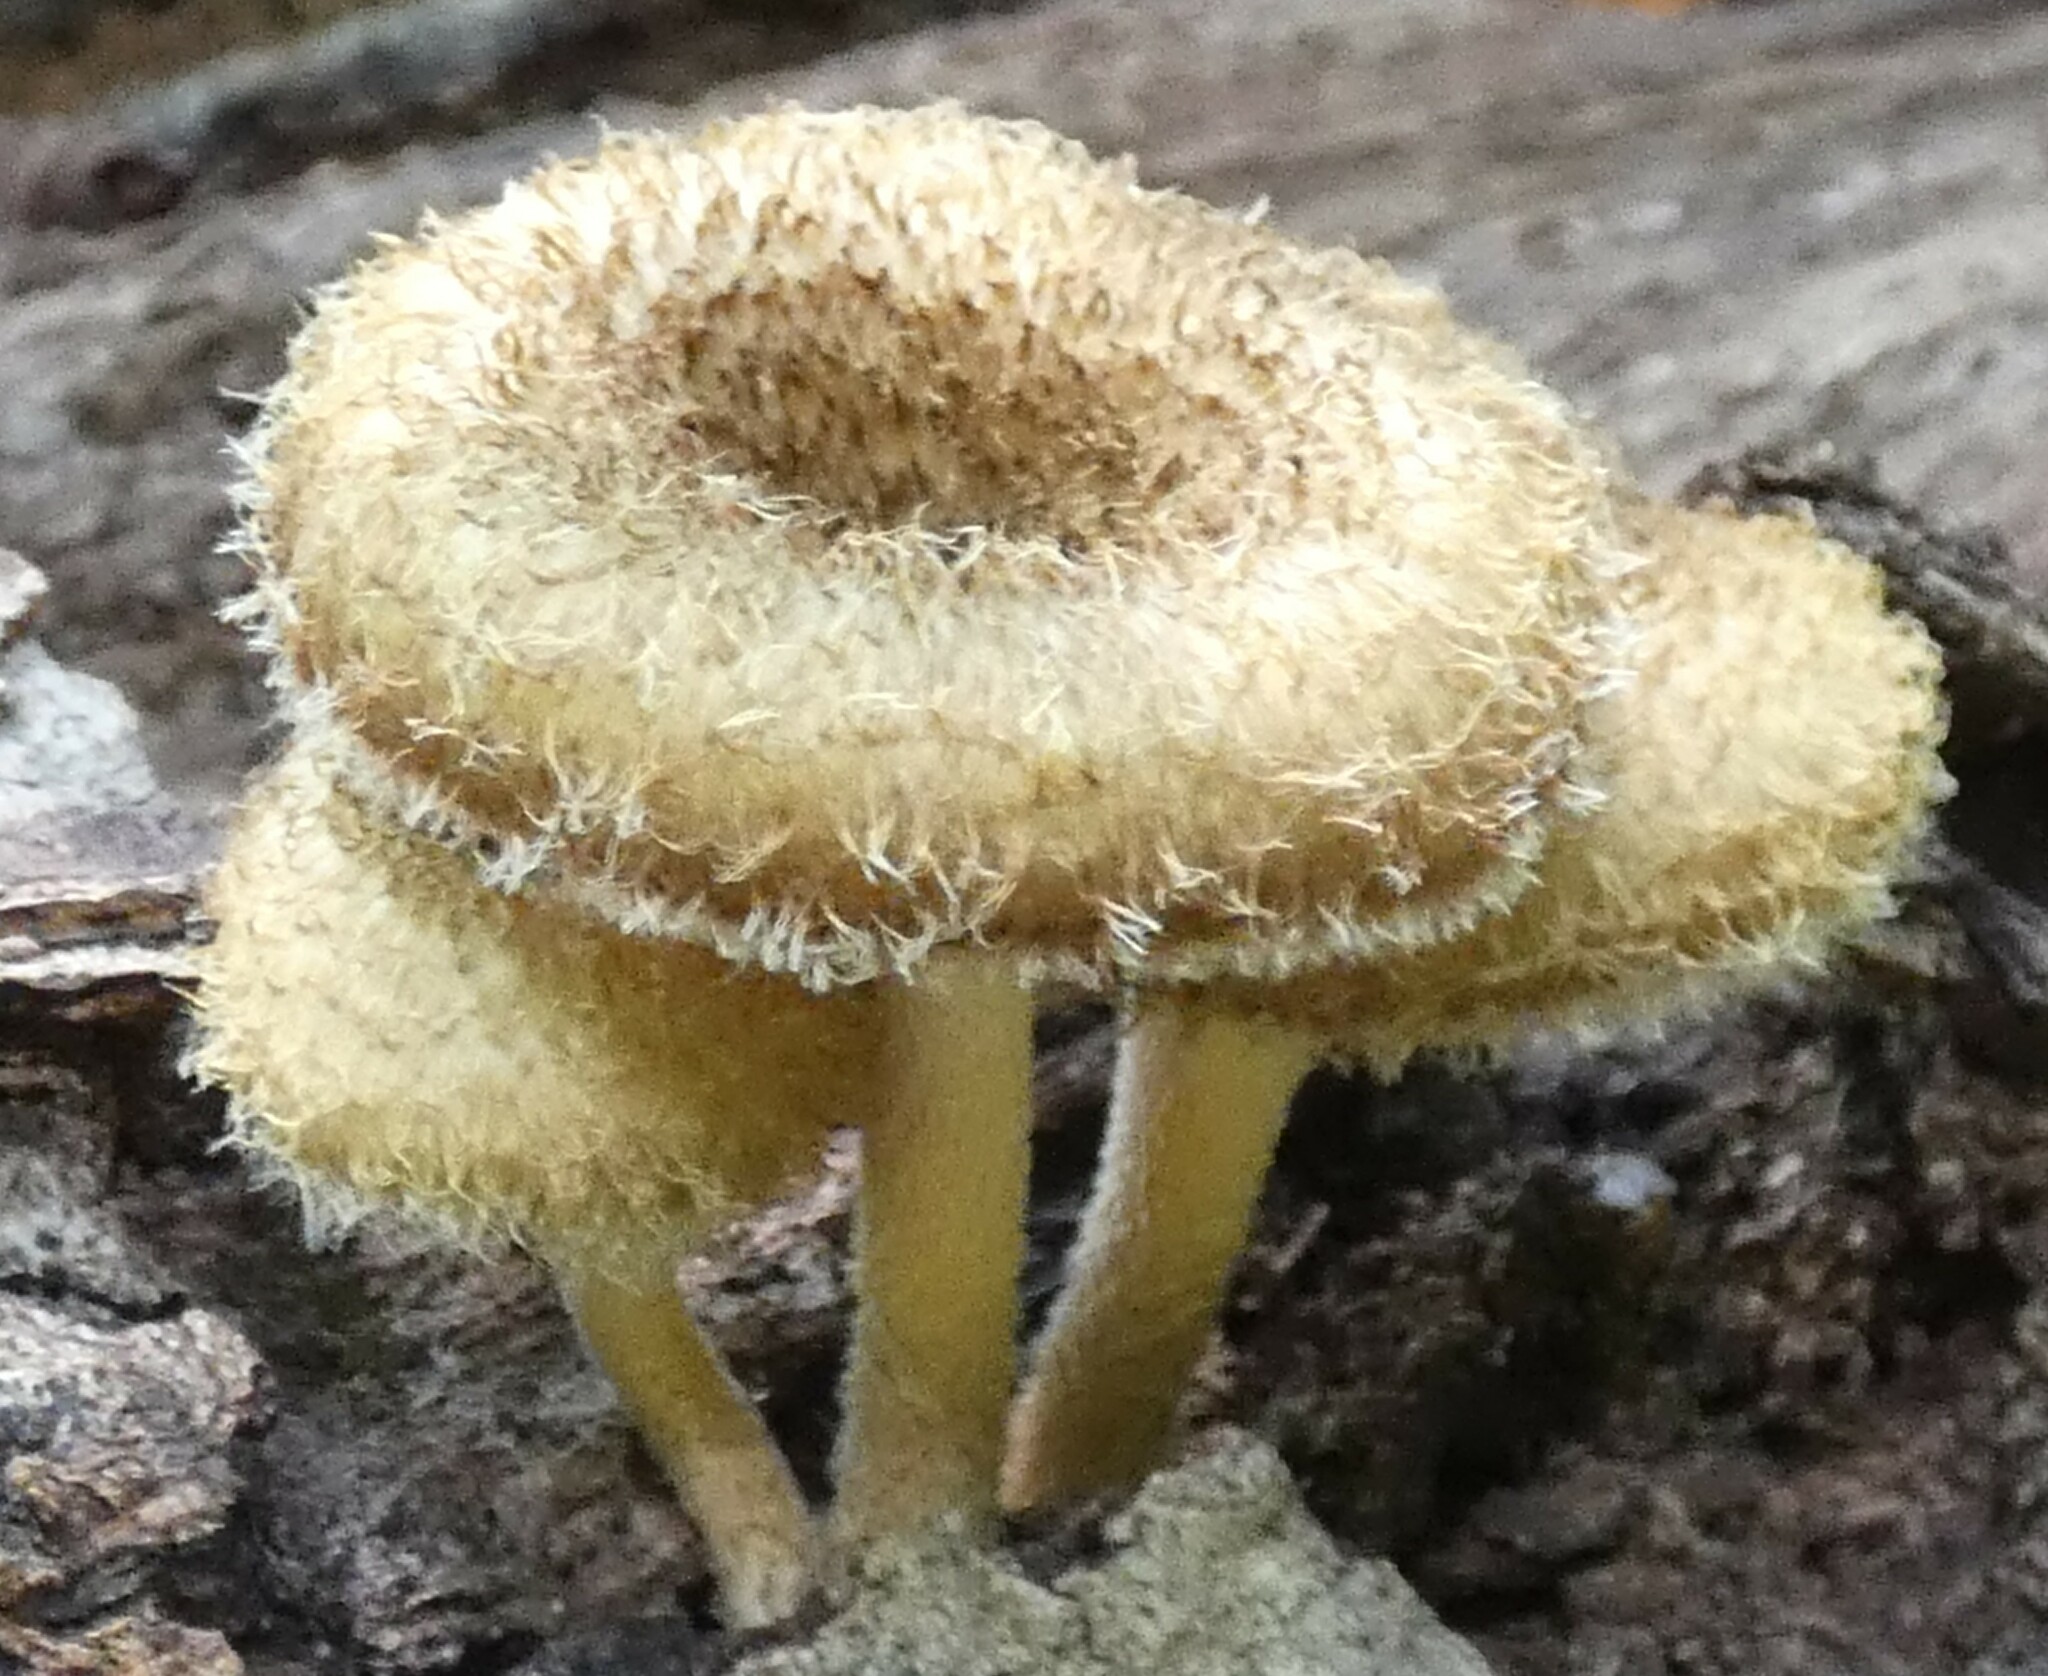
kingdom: Fungi
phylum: Basidiomycota
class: Agaricomycetes
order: Polyporales
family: Polyporaceae
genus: Lentinus
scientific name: Lentinus crinitus
